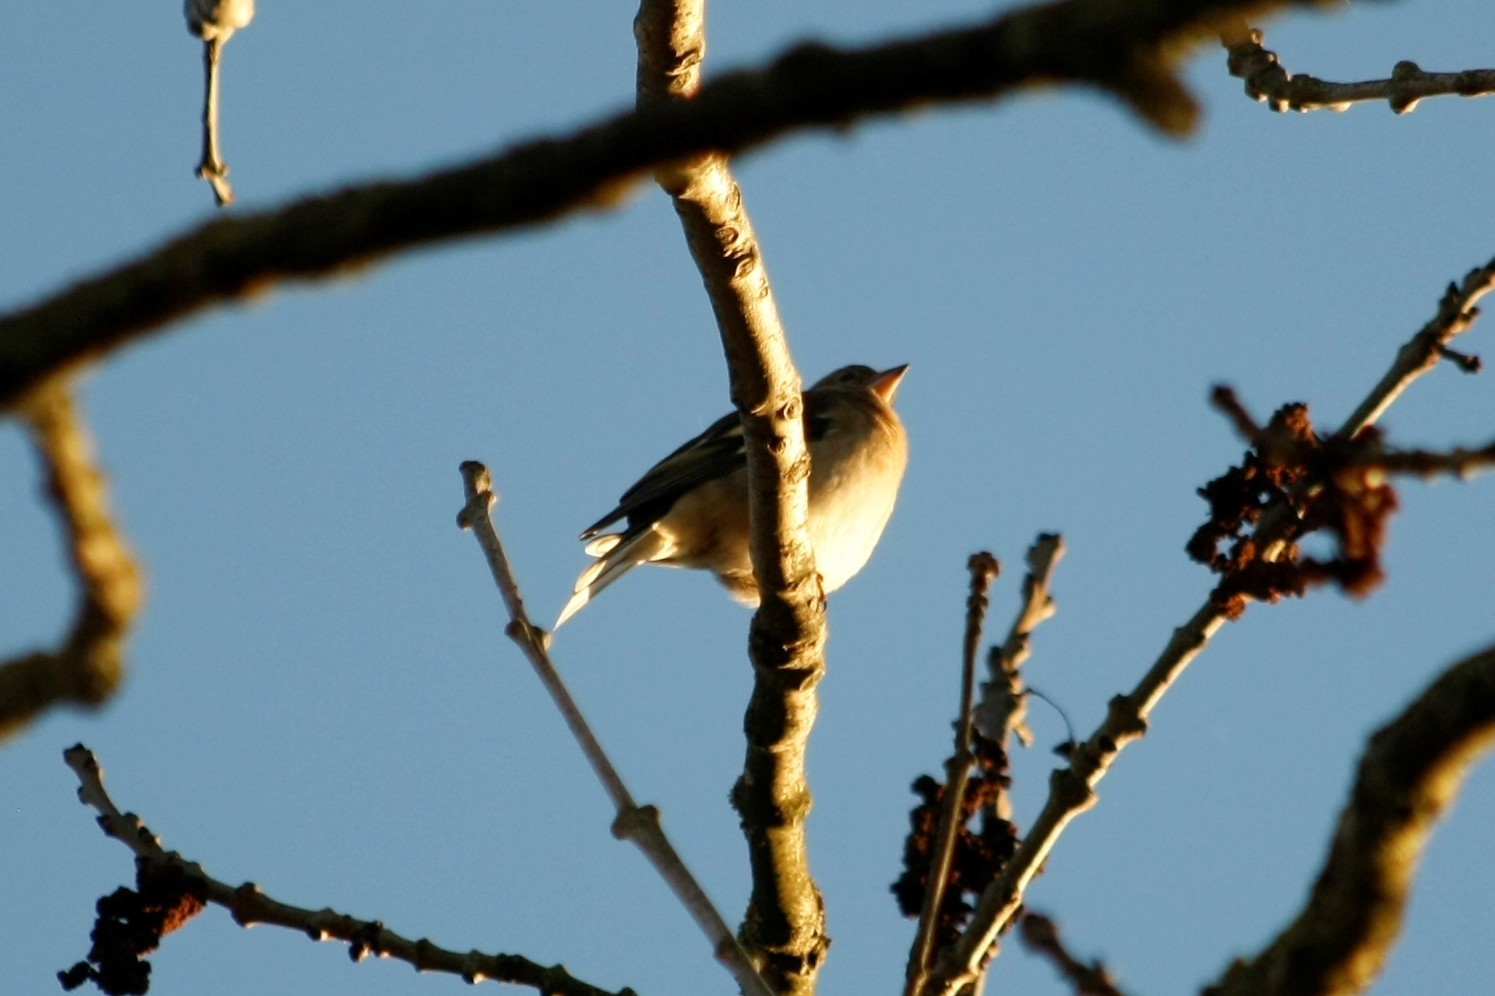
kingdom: Animalia
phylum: Chordata
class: Aves
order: Passeriformes
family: Fringillidae
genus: Fringilla
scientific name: Fringilla coelebs
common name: Common chaffinch
